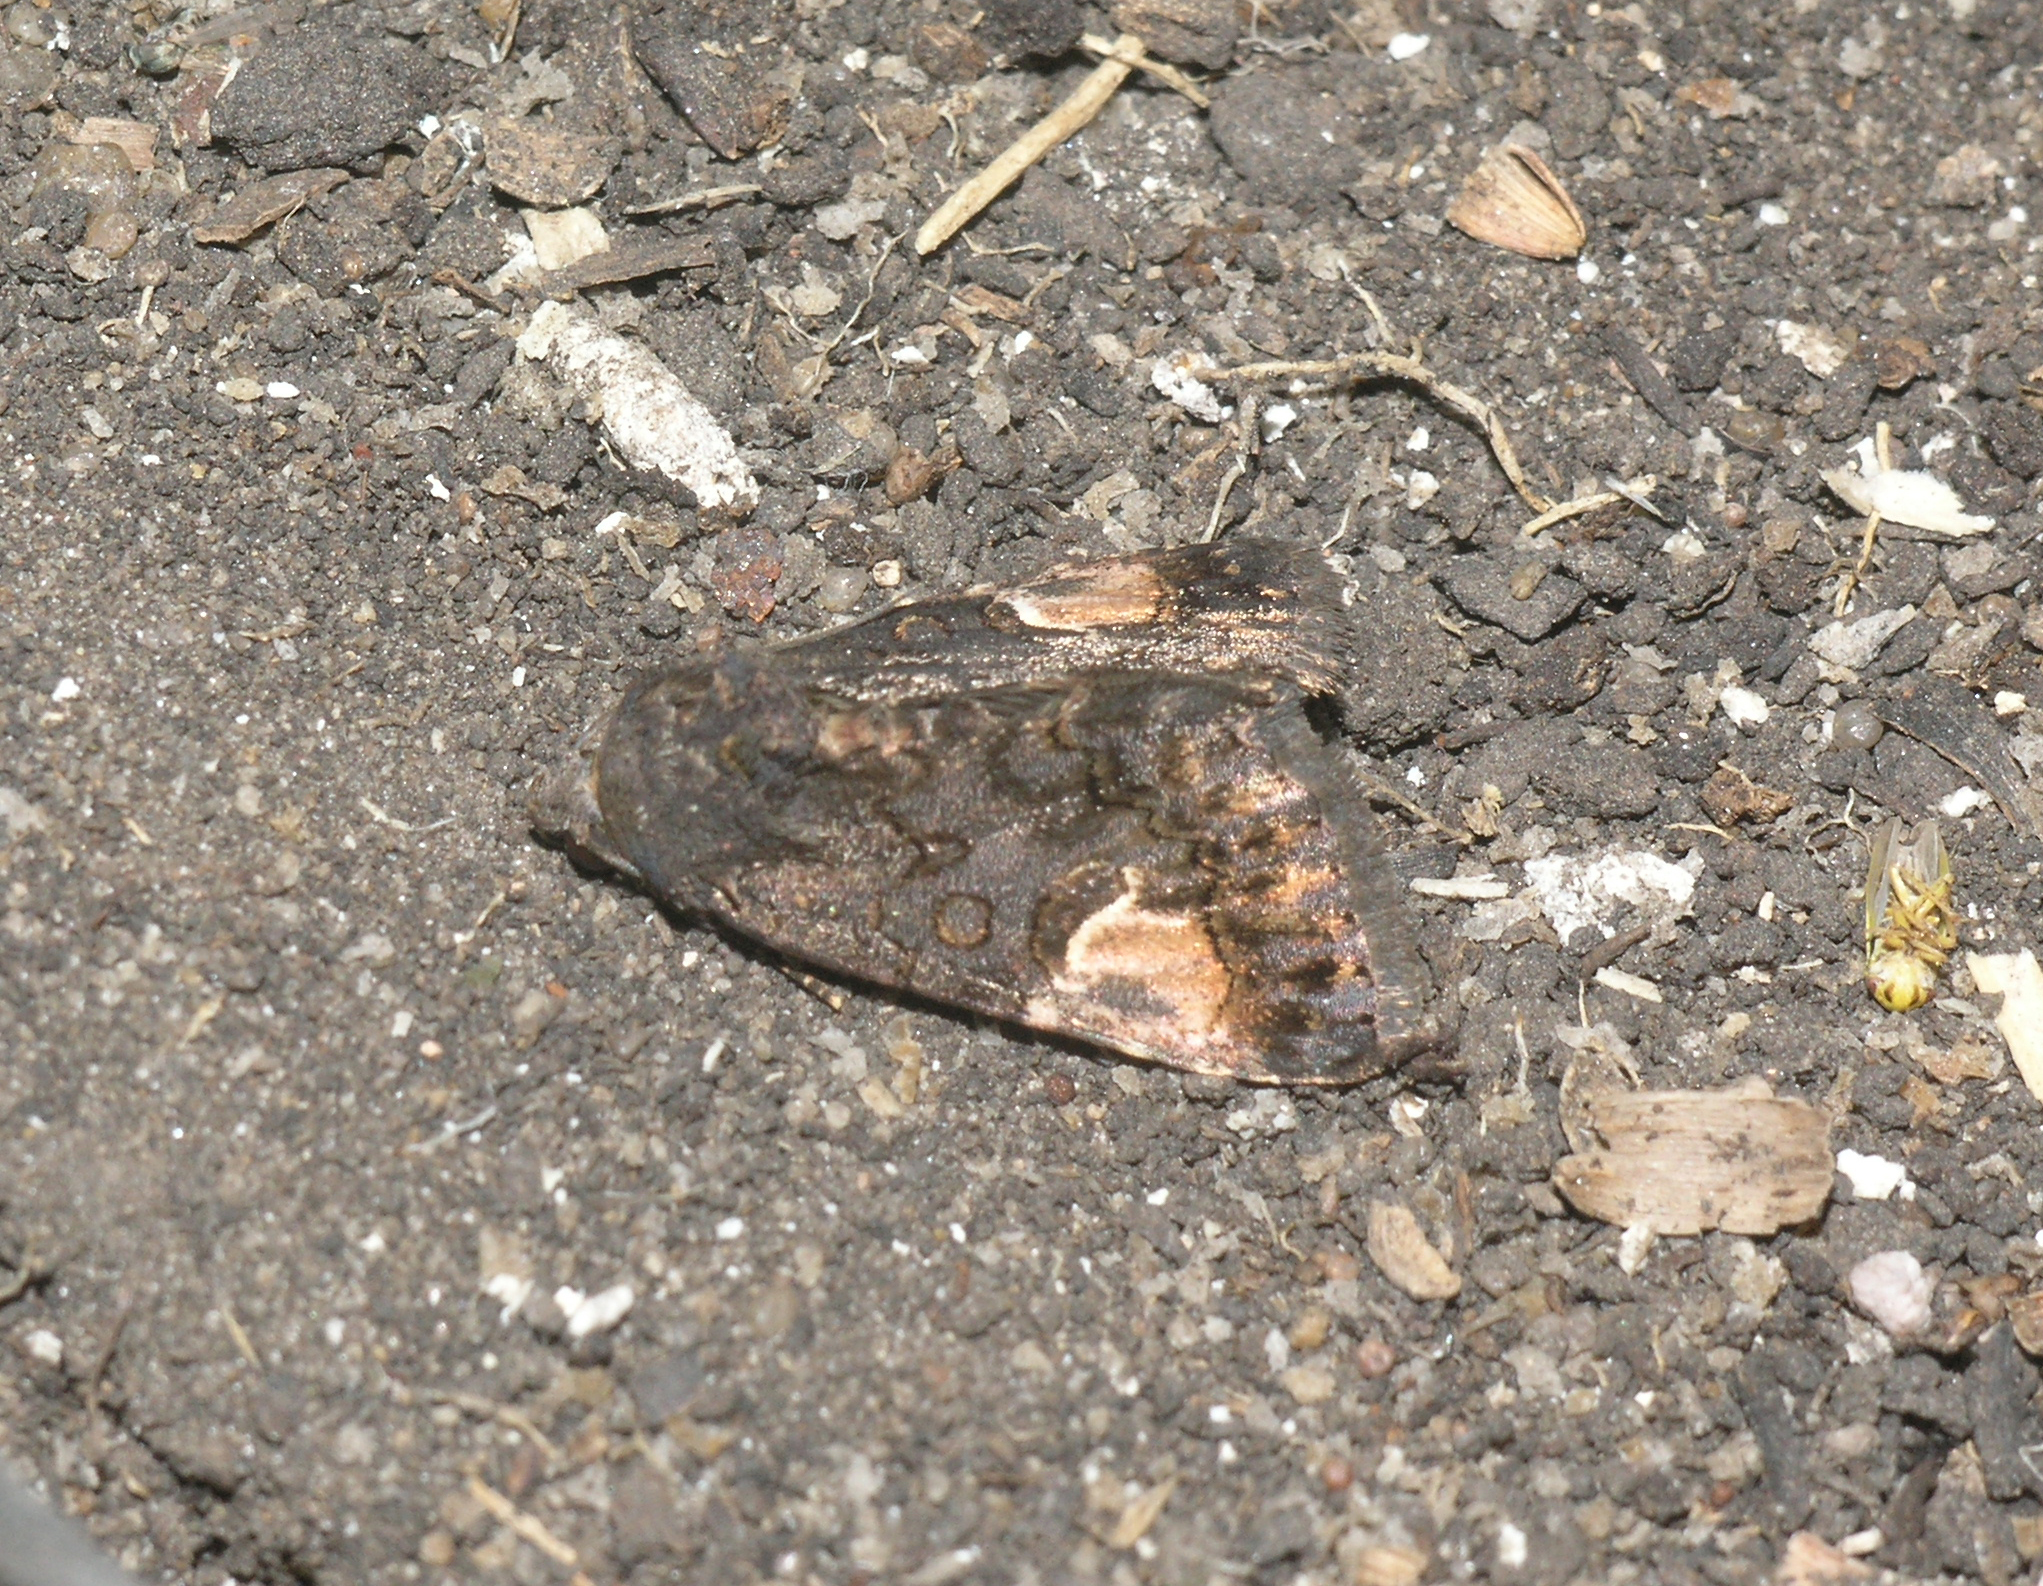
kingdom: Animalia
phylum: Arthropoda
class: Insecta
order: Lepidoptera
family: Noctuidae
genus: Aedia
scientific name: Aedia funesta
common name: The druid
